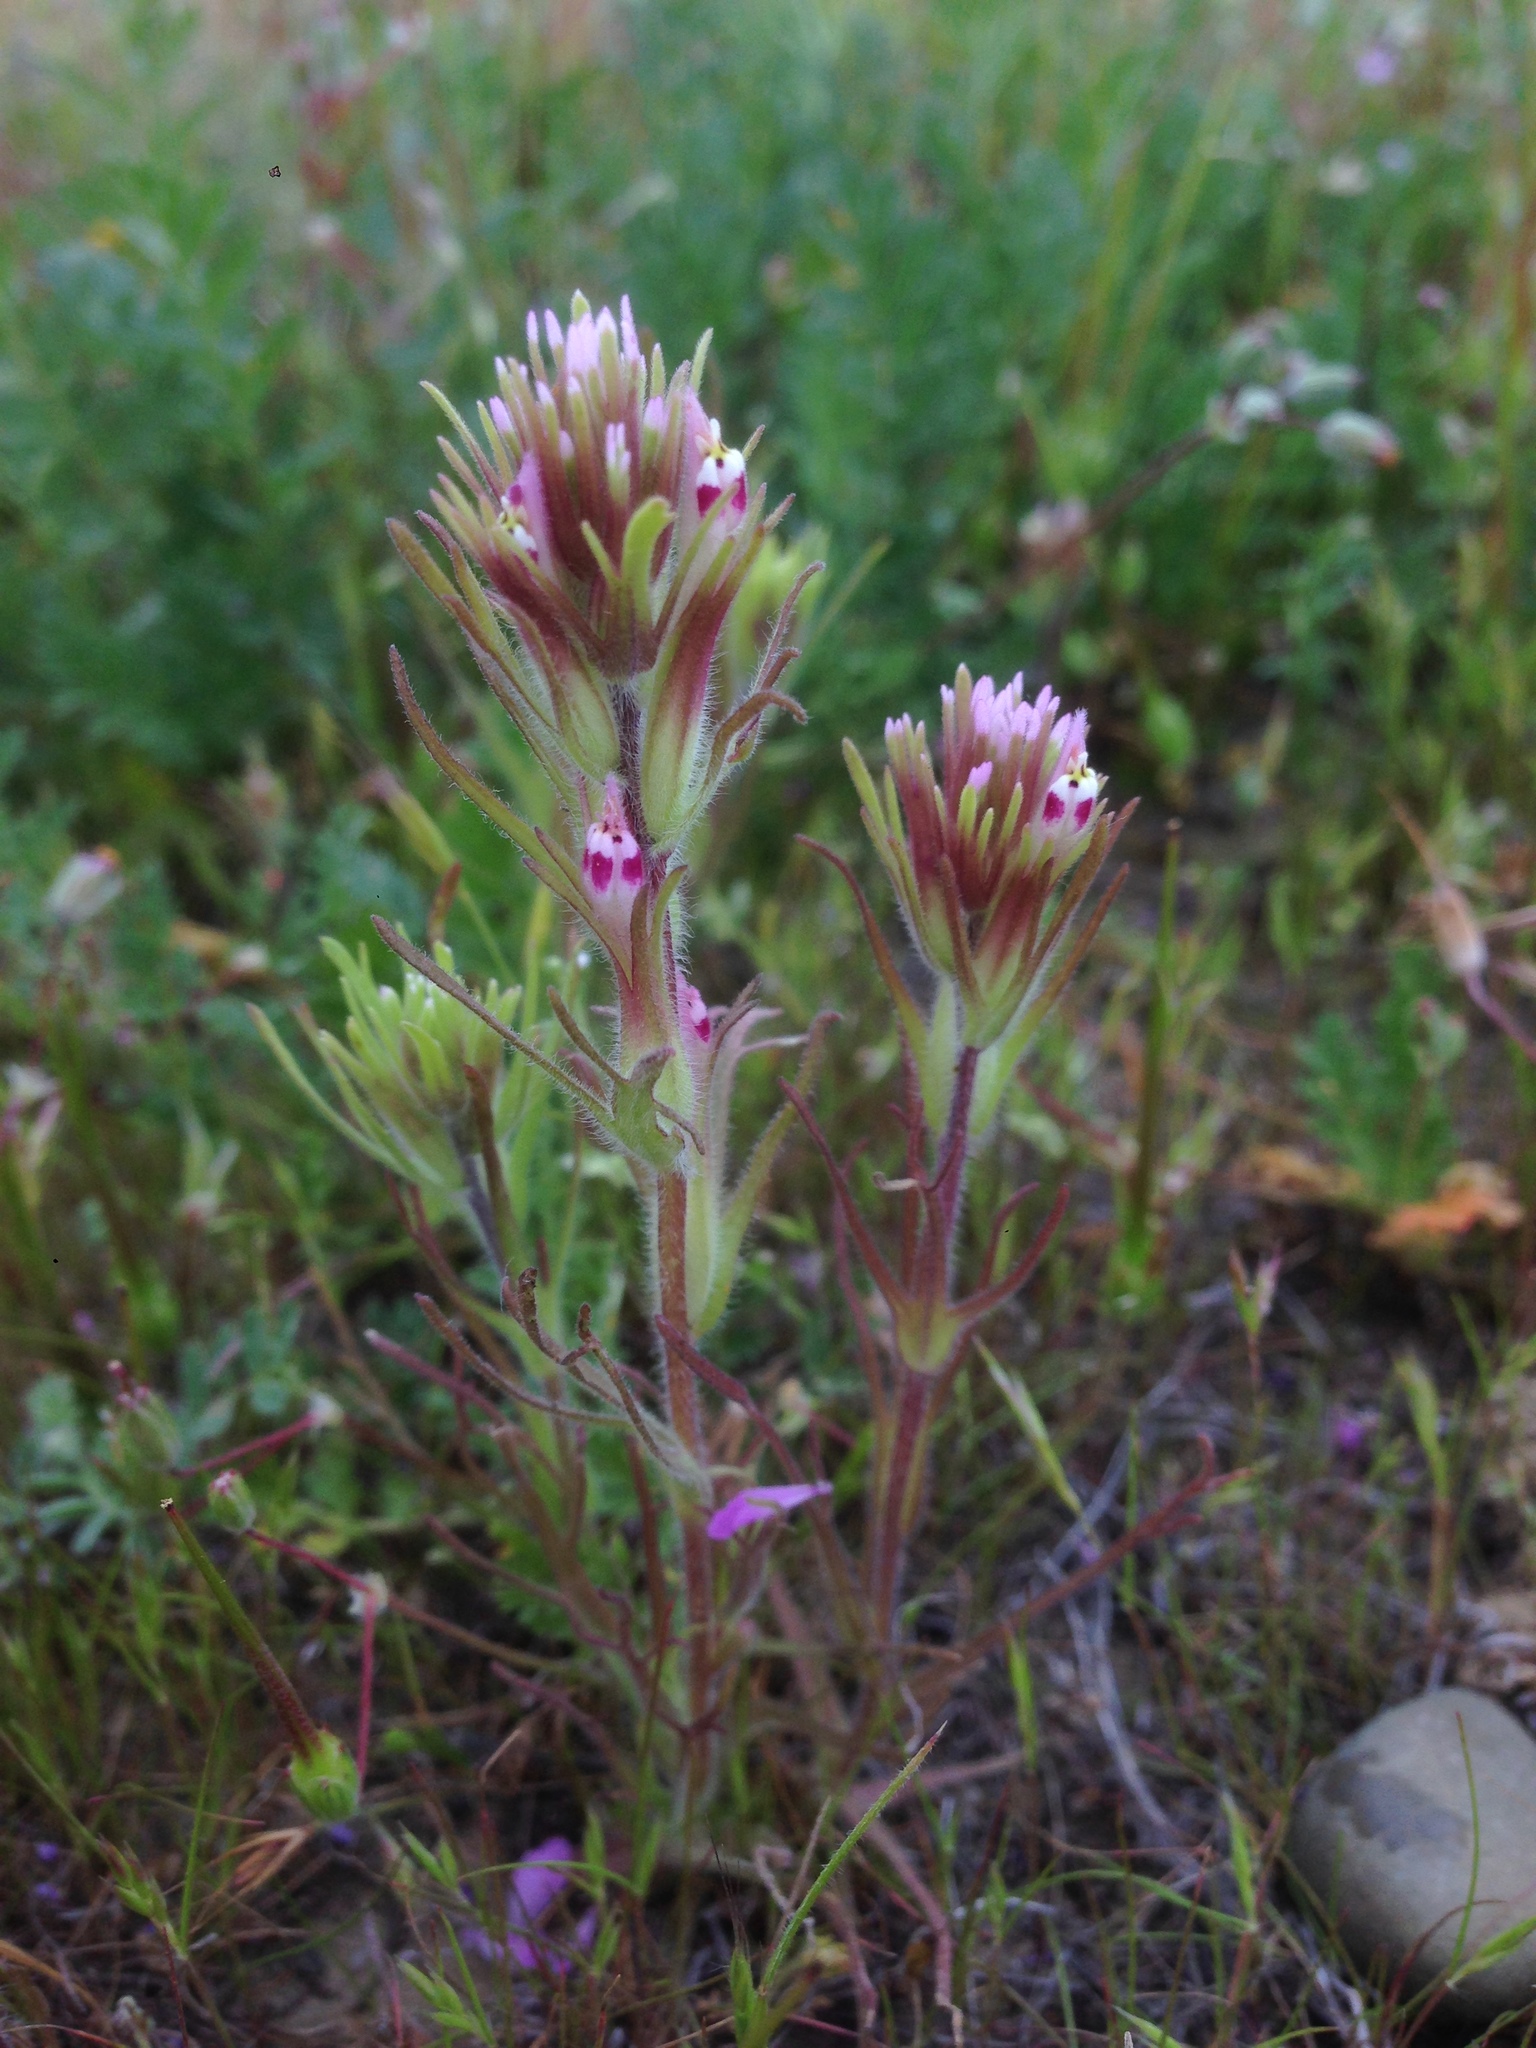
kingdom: Plantae
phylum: Tracheophyta
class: Magnoliopsida
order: Lamiales
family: Orobanchaceae
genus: Castilleja
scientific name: Castilleja exserta
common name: Purple owl-clover
